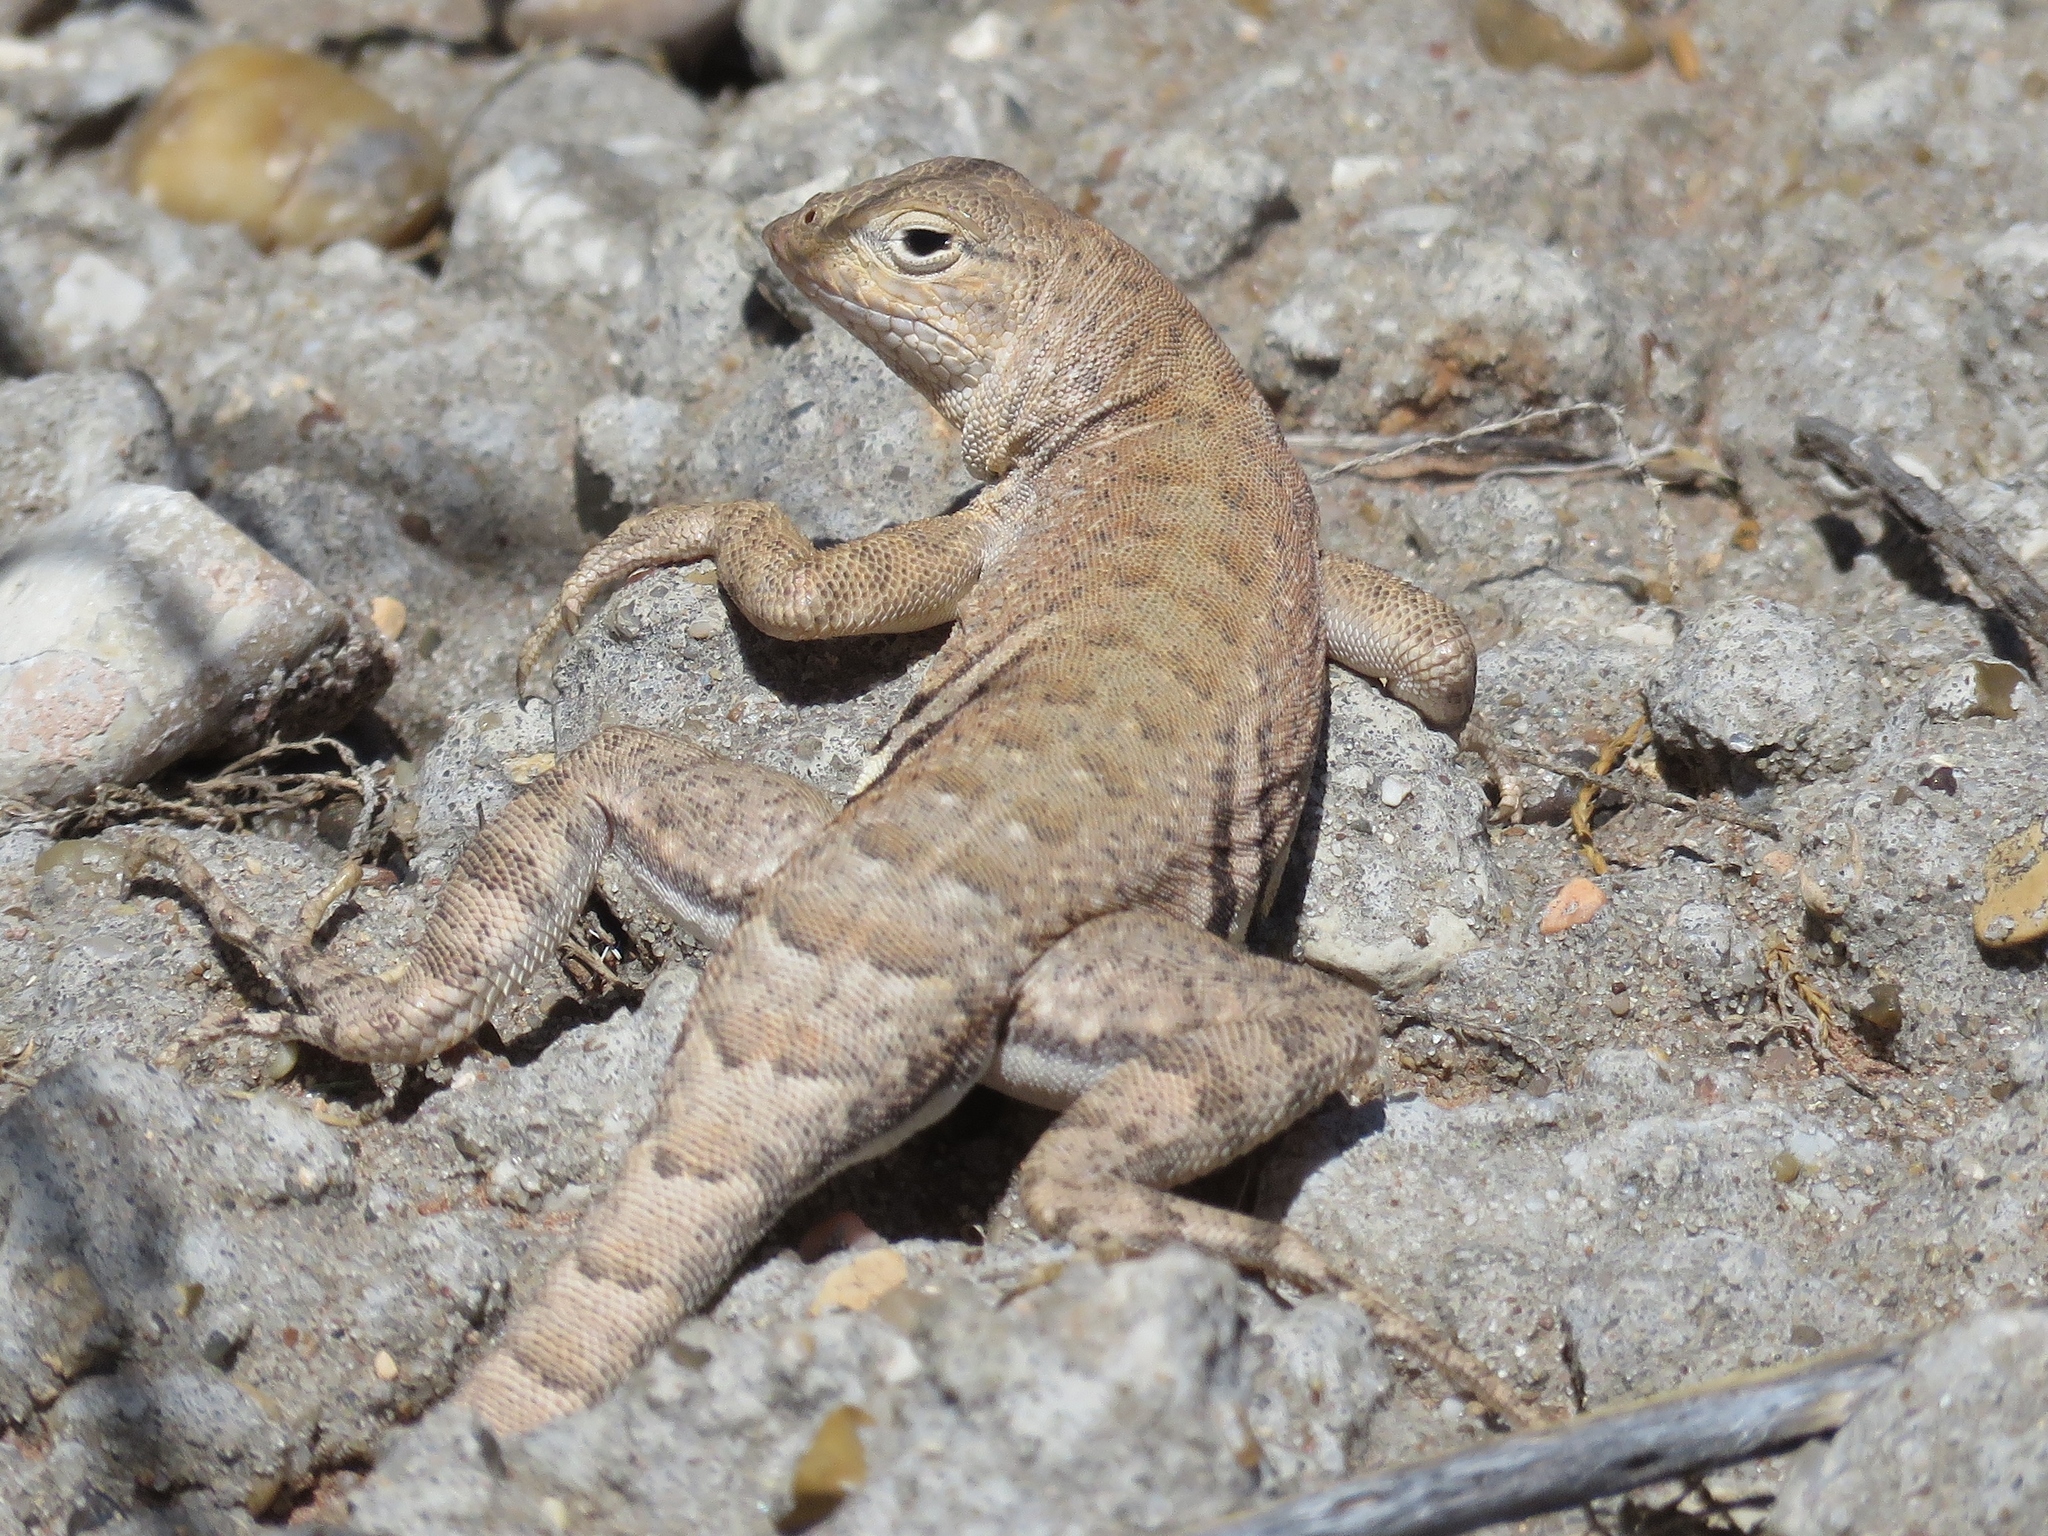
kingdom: Animalia
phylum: Chordata
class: Squamata
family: Phrynosomatidae
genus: Cophosaurus
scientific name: Cophosaurus texanus
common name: Greater earless lizard
